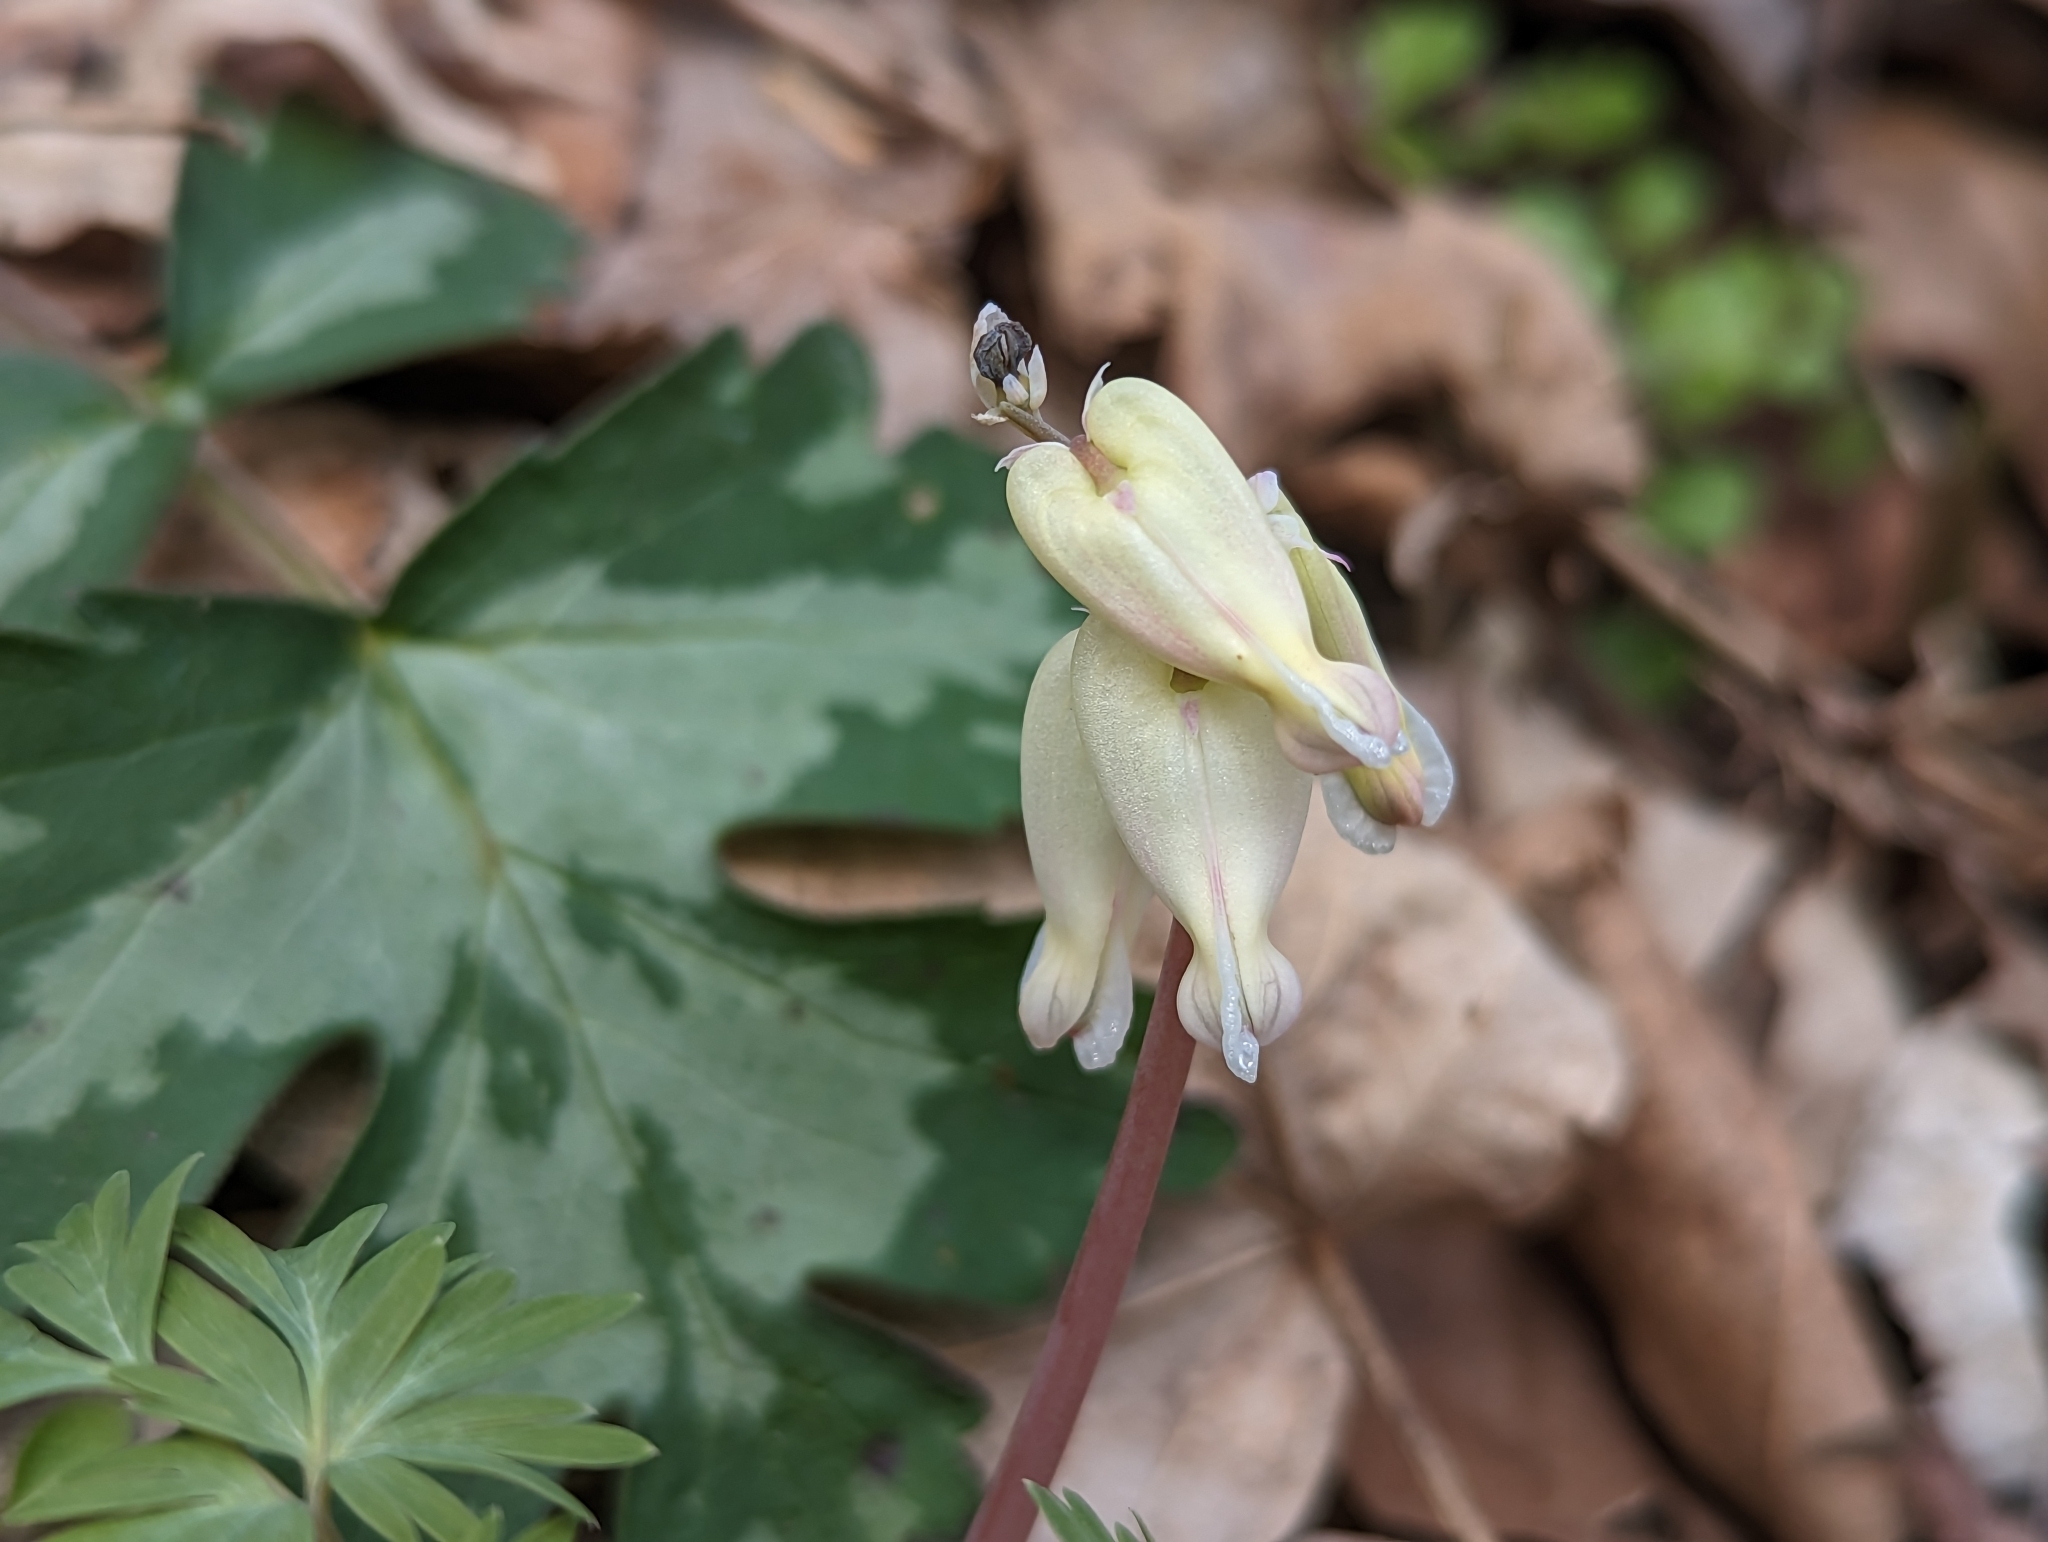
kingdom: Plantae
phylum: Tracheophyta
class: Magnoliopsida
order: Ranunculales
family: Papaveraceae
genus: Dicentra
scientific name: Dicentra canadensis
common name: Squirrel-corn
